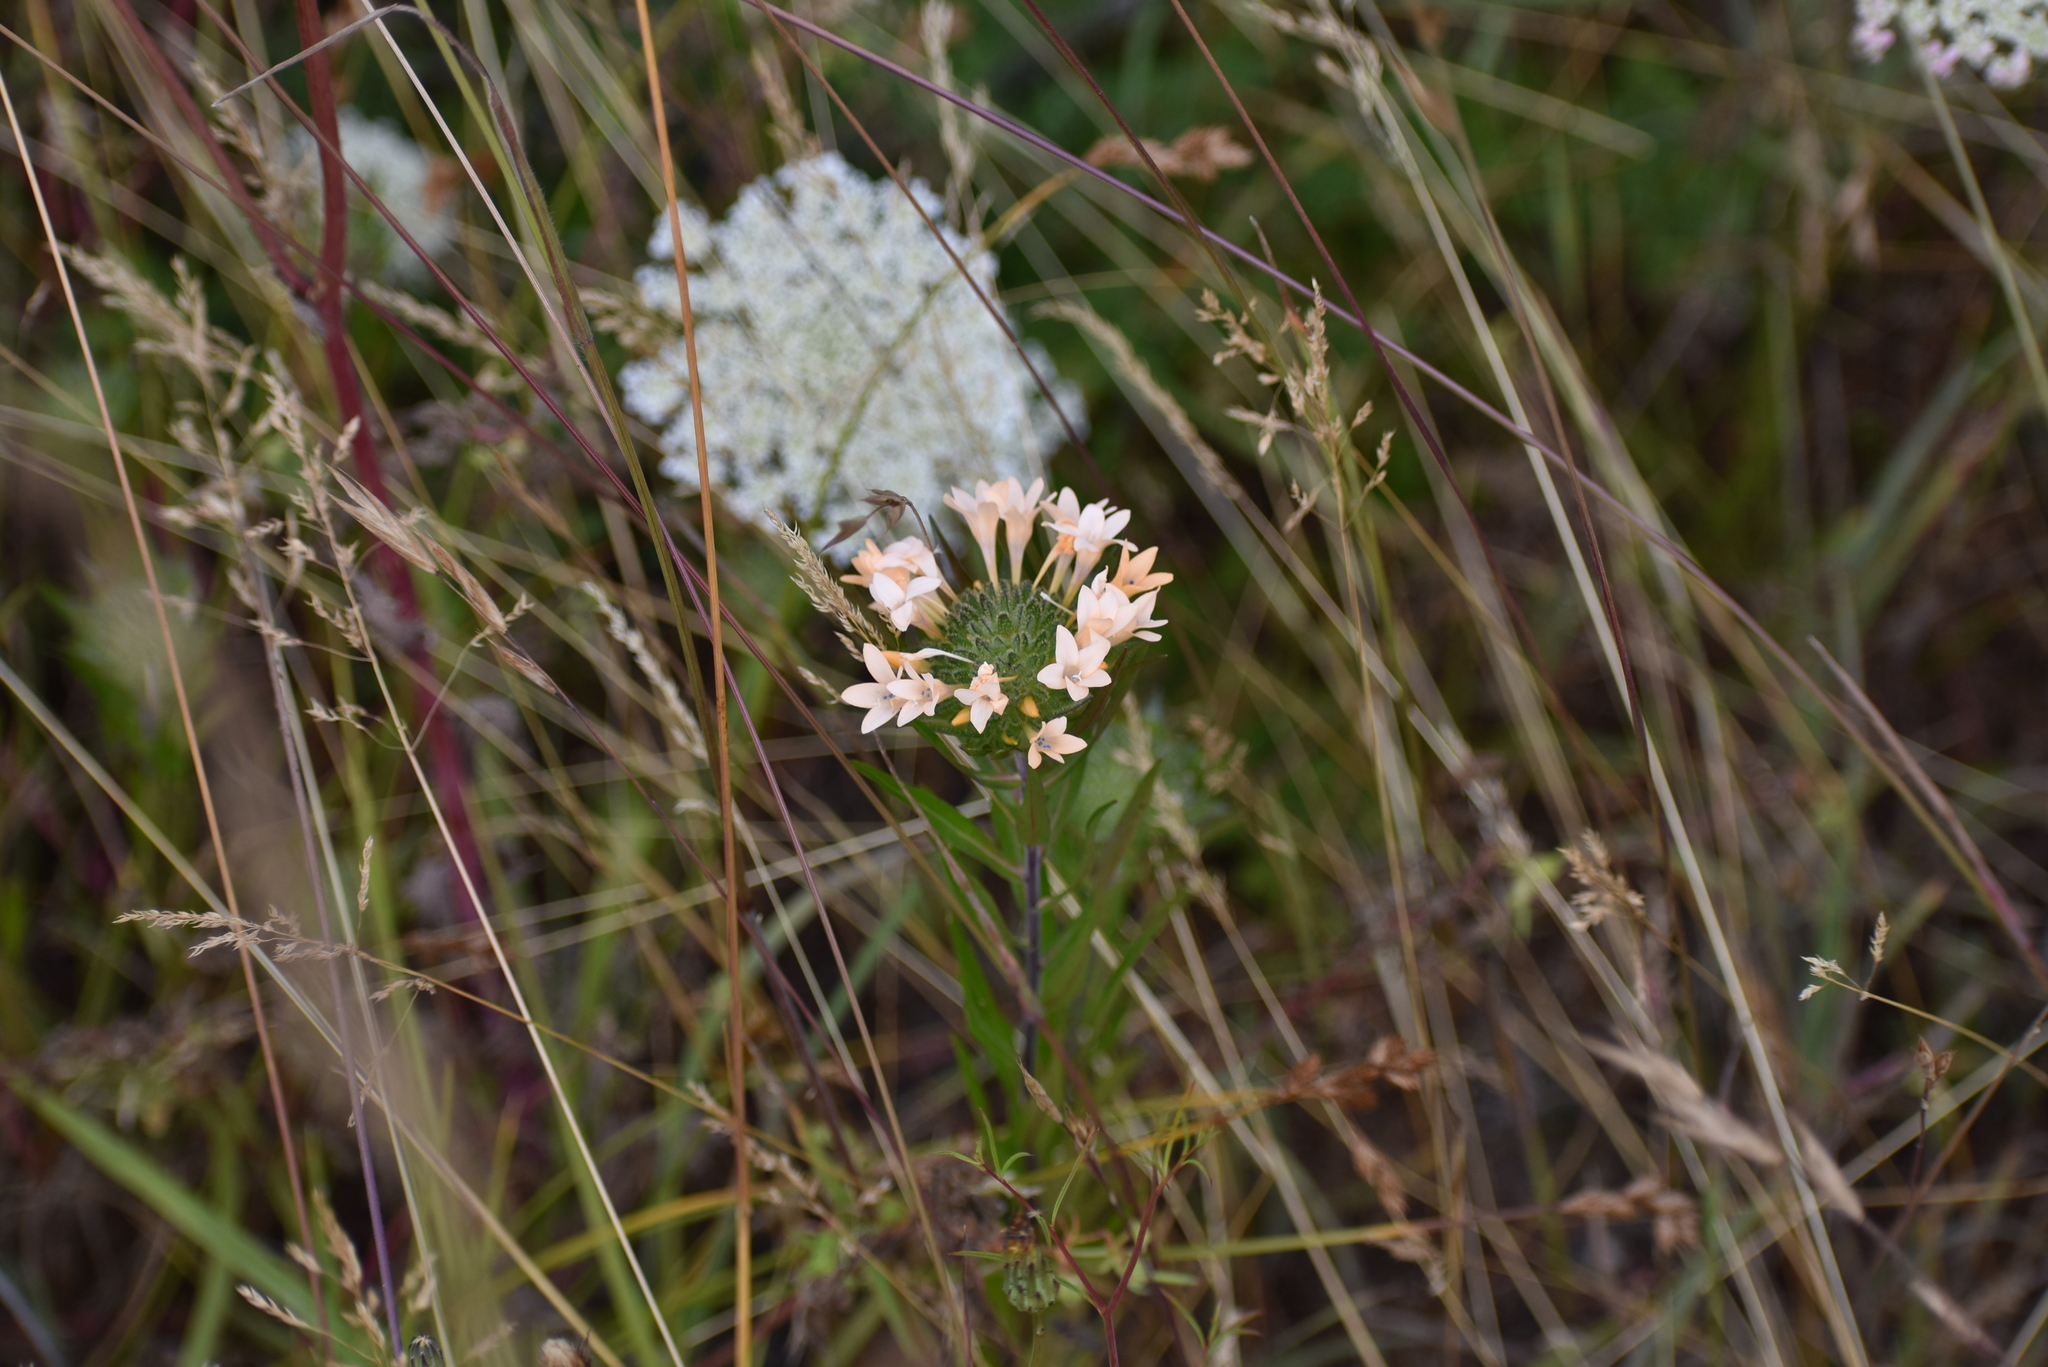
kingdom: Plantae
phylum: Tracheophyta
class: Magnoliopsida
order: Ericales
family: Polemoniaceae
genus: Collomia
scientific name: Collomia grandiflora
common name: California strawflower
